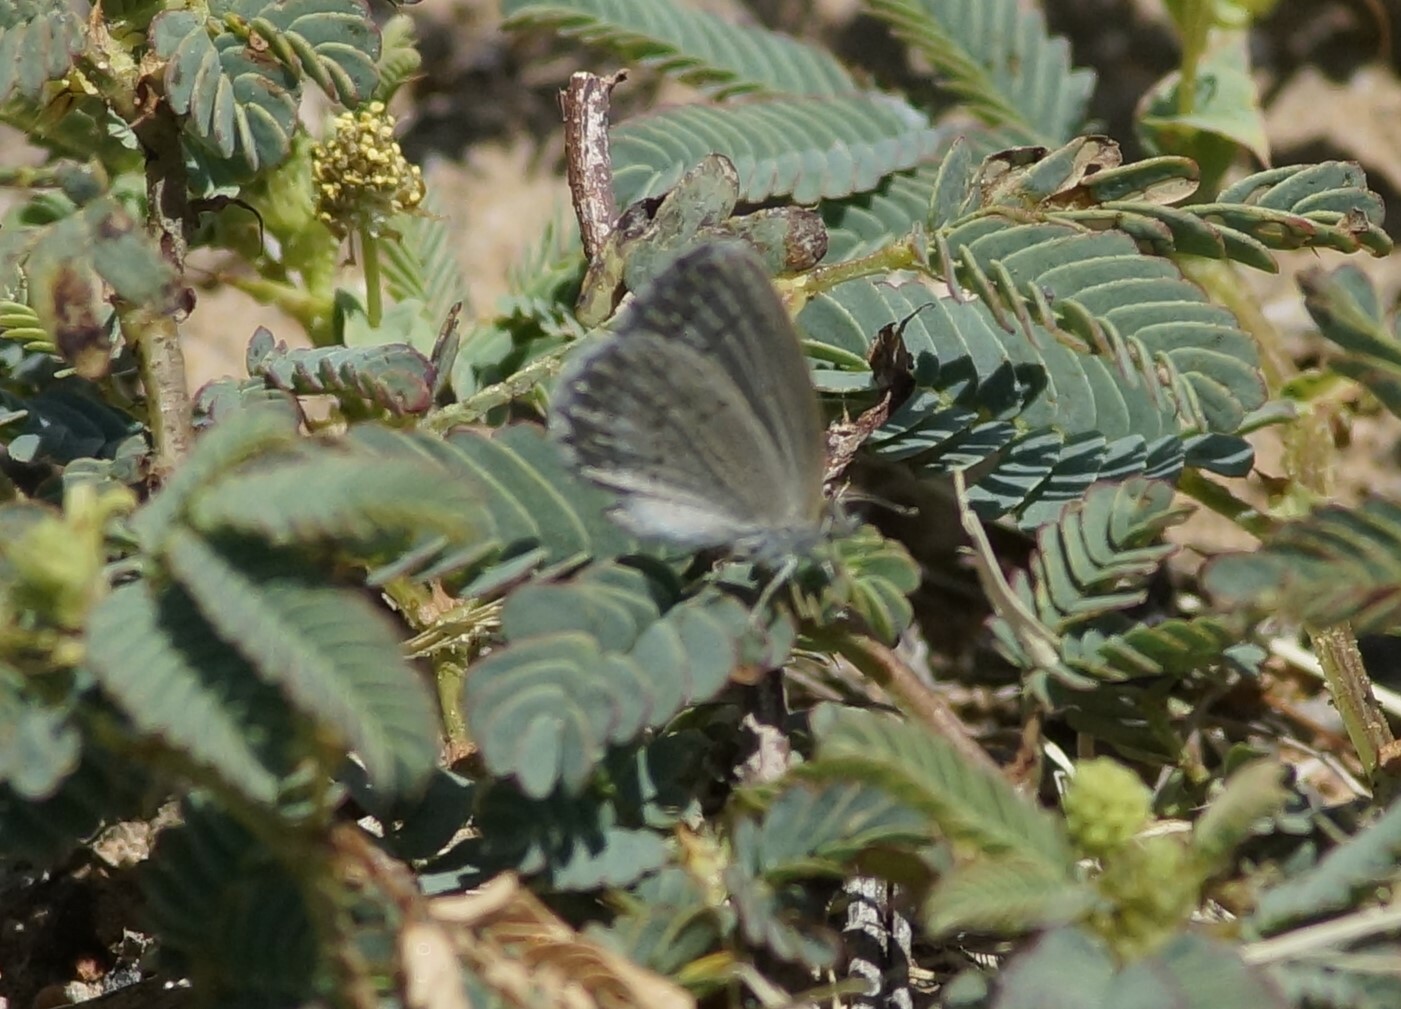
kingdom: Animalia
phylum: Arthropoda
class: Insecta
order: Lepidoptera
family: Lycaenidae
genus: Zizina
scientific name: Zizina otis
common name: Lesser grass blue
